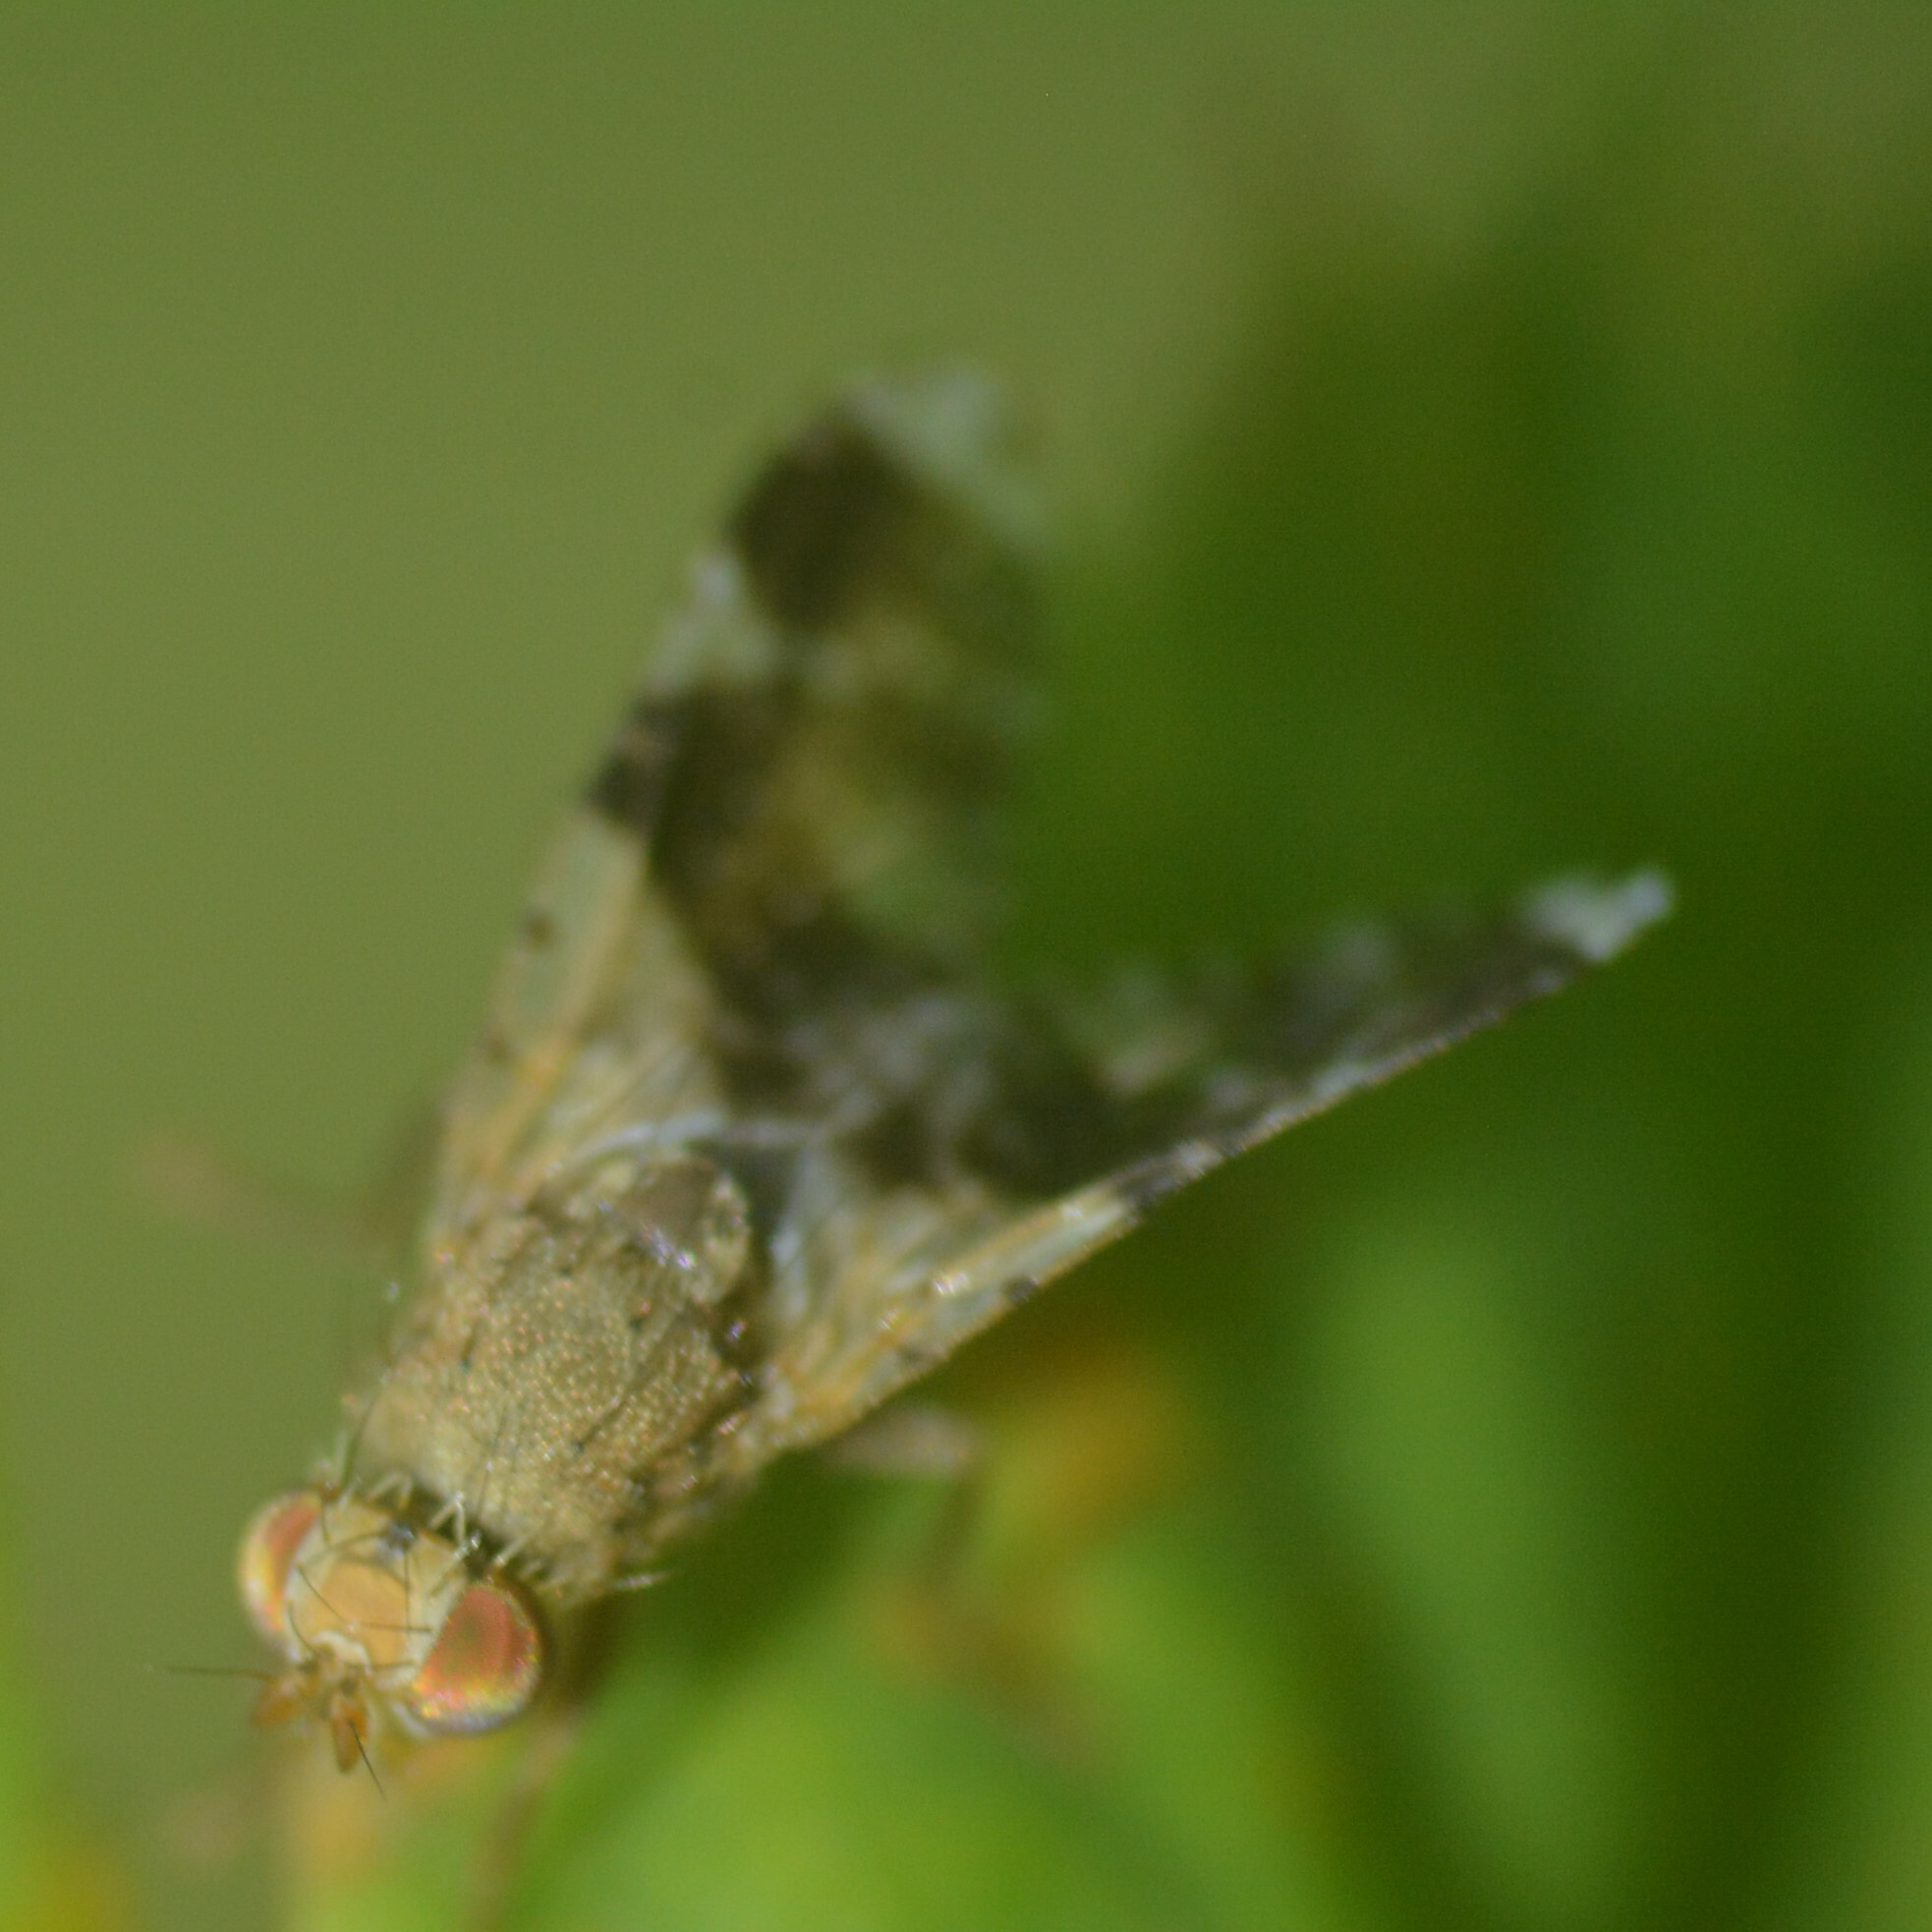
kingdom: Animalia
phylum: Arthropoda
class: Insecta
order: Diptera
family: Tephritidae
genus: Tephritis
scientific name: Tephritis formosa
